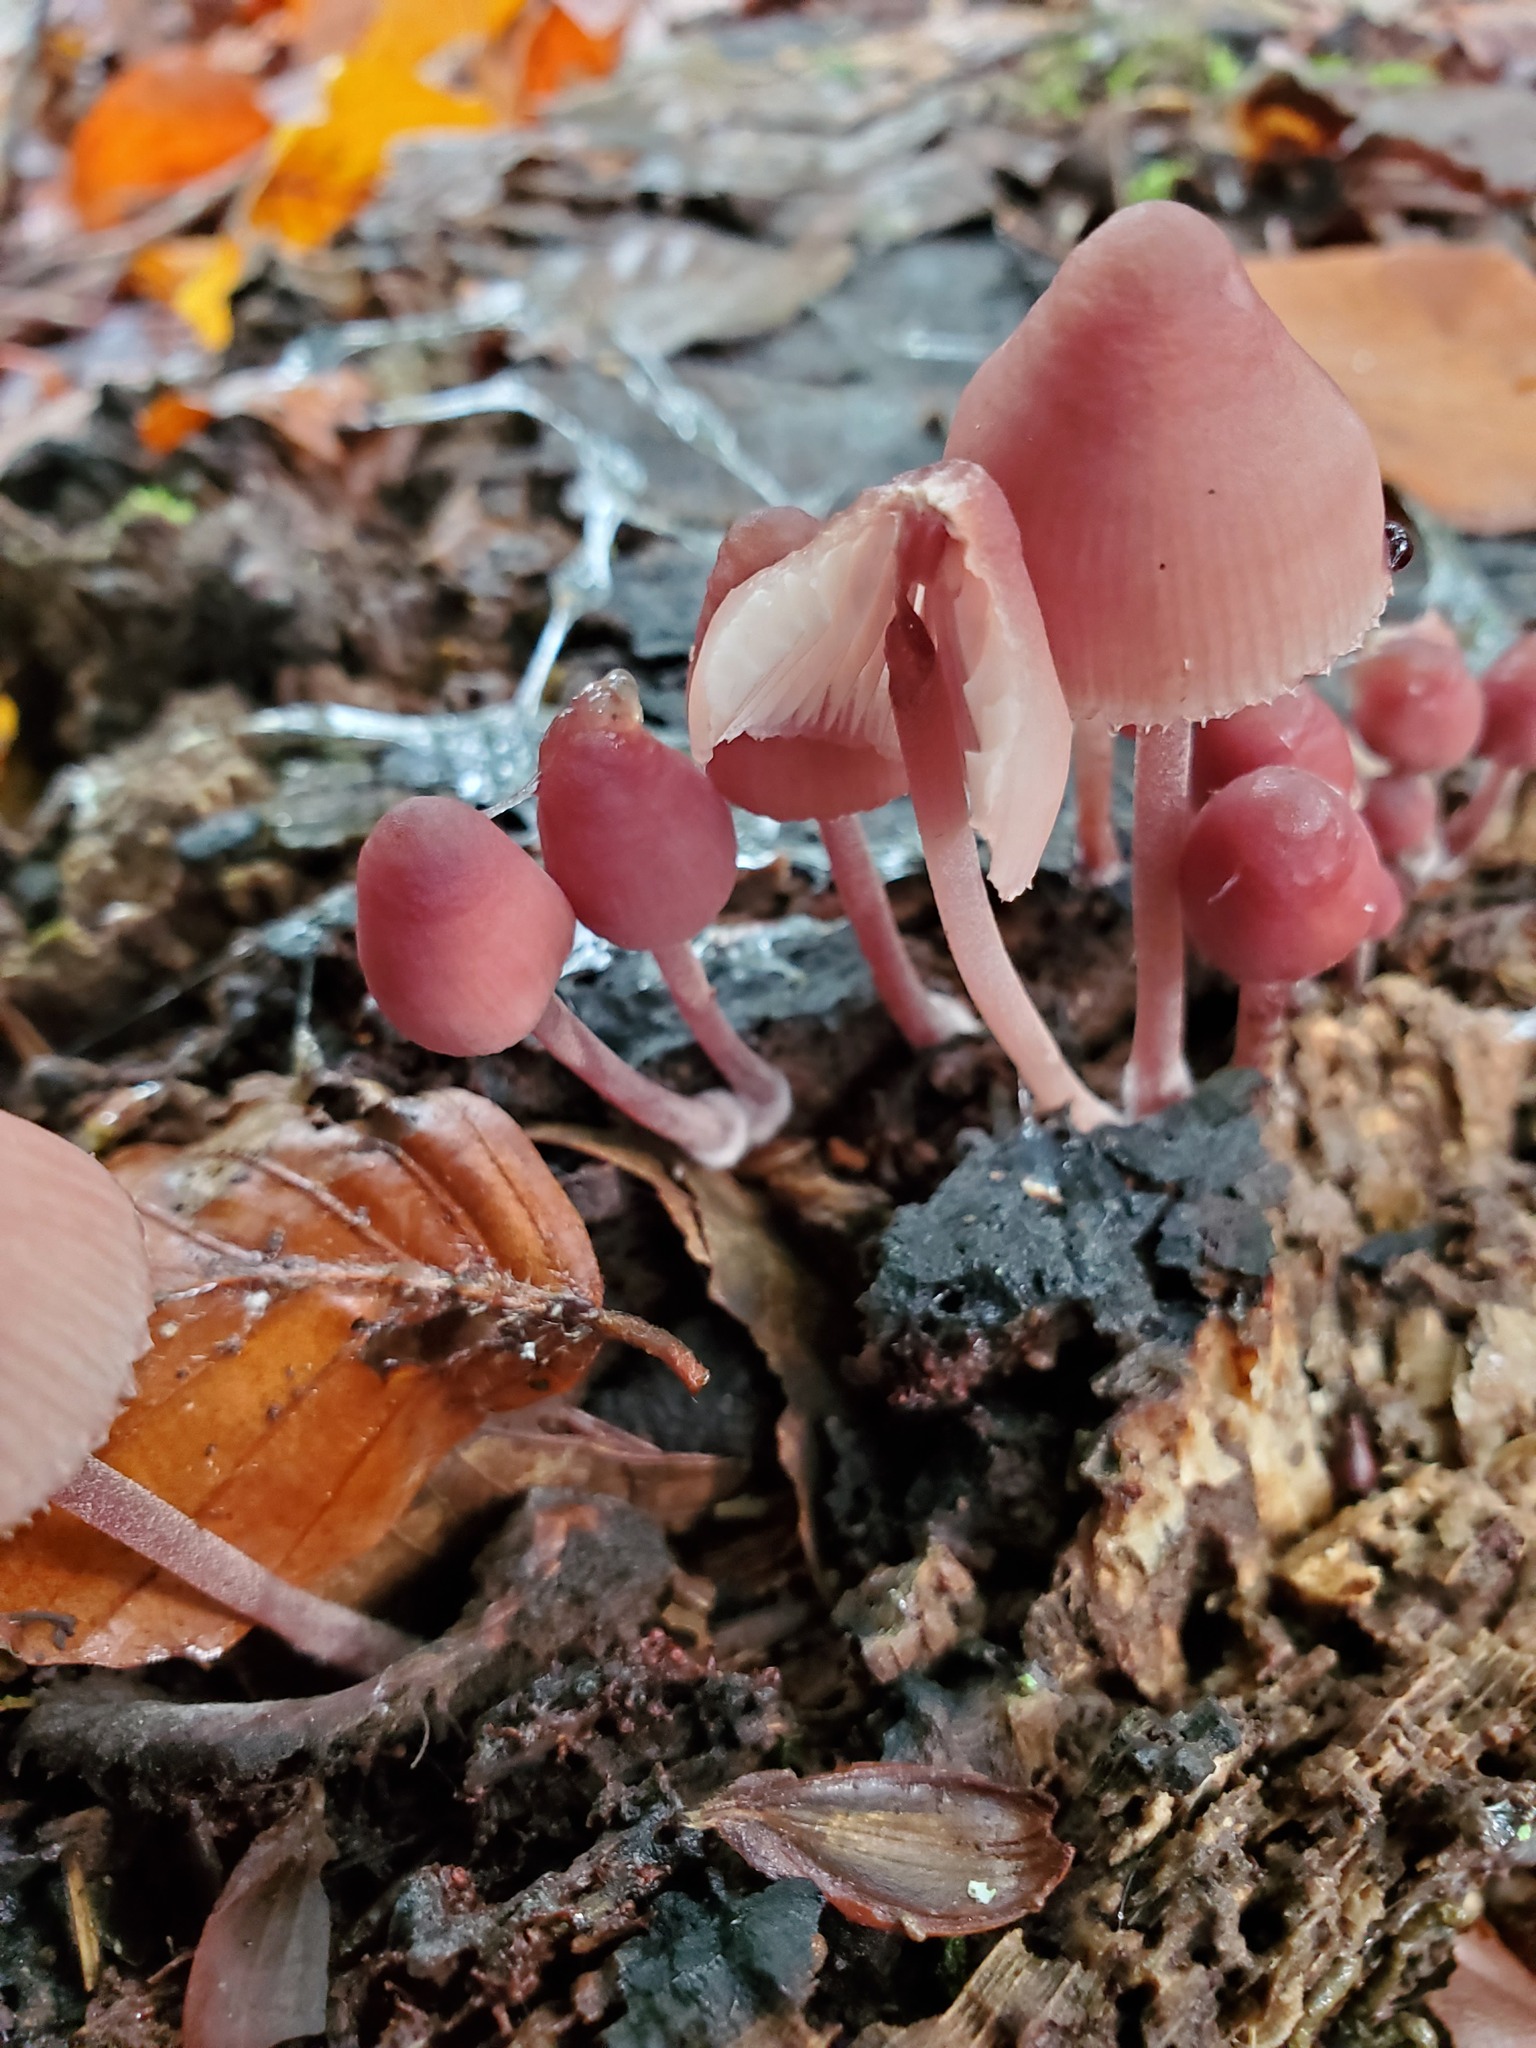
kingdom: Fungi
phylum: Basidiomycota
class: Agaricomycetes
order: Agaricales
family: Mycenaceae
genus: Mycena
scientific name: Mycena haematopus
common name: Burgundydrop bonnet
